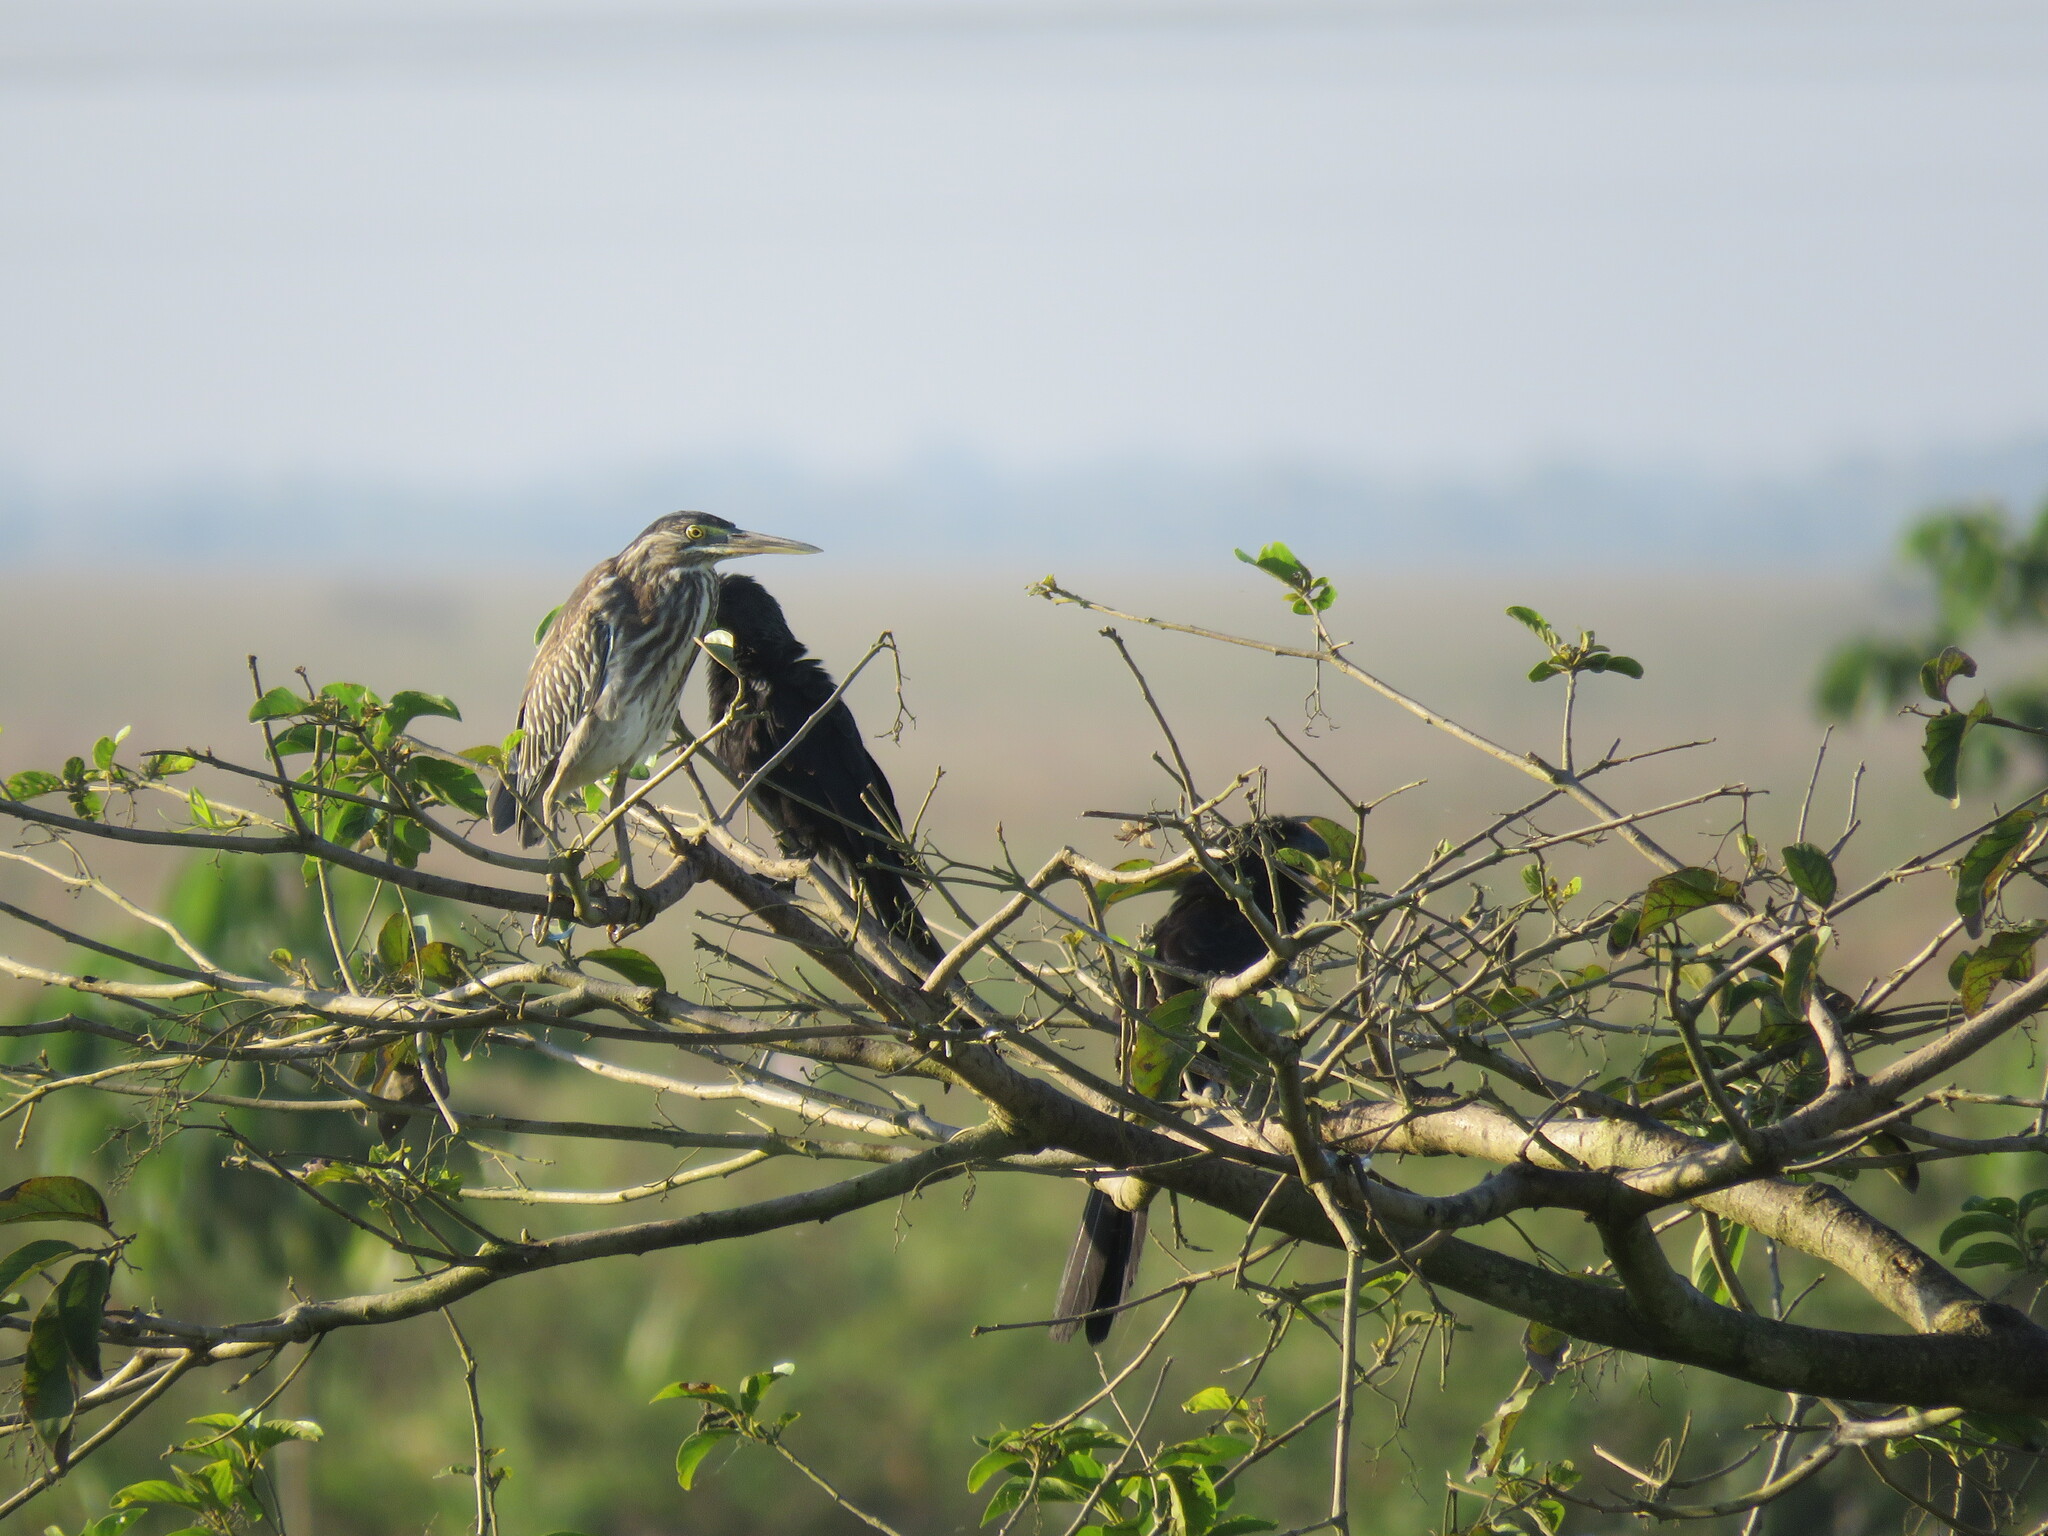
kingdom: Animalia
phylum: Chordata
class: Aves
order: Pelecaniformes
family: Ardeidae
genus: Butorides
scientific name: Butorides striata
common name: Striated heron
